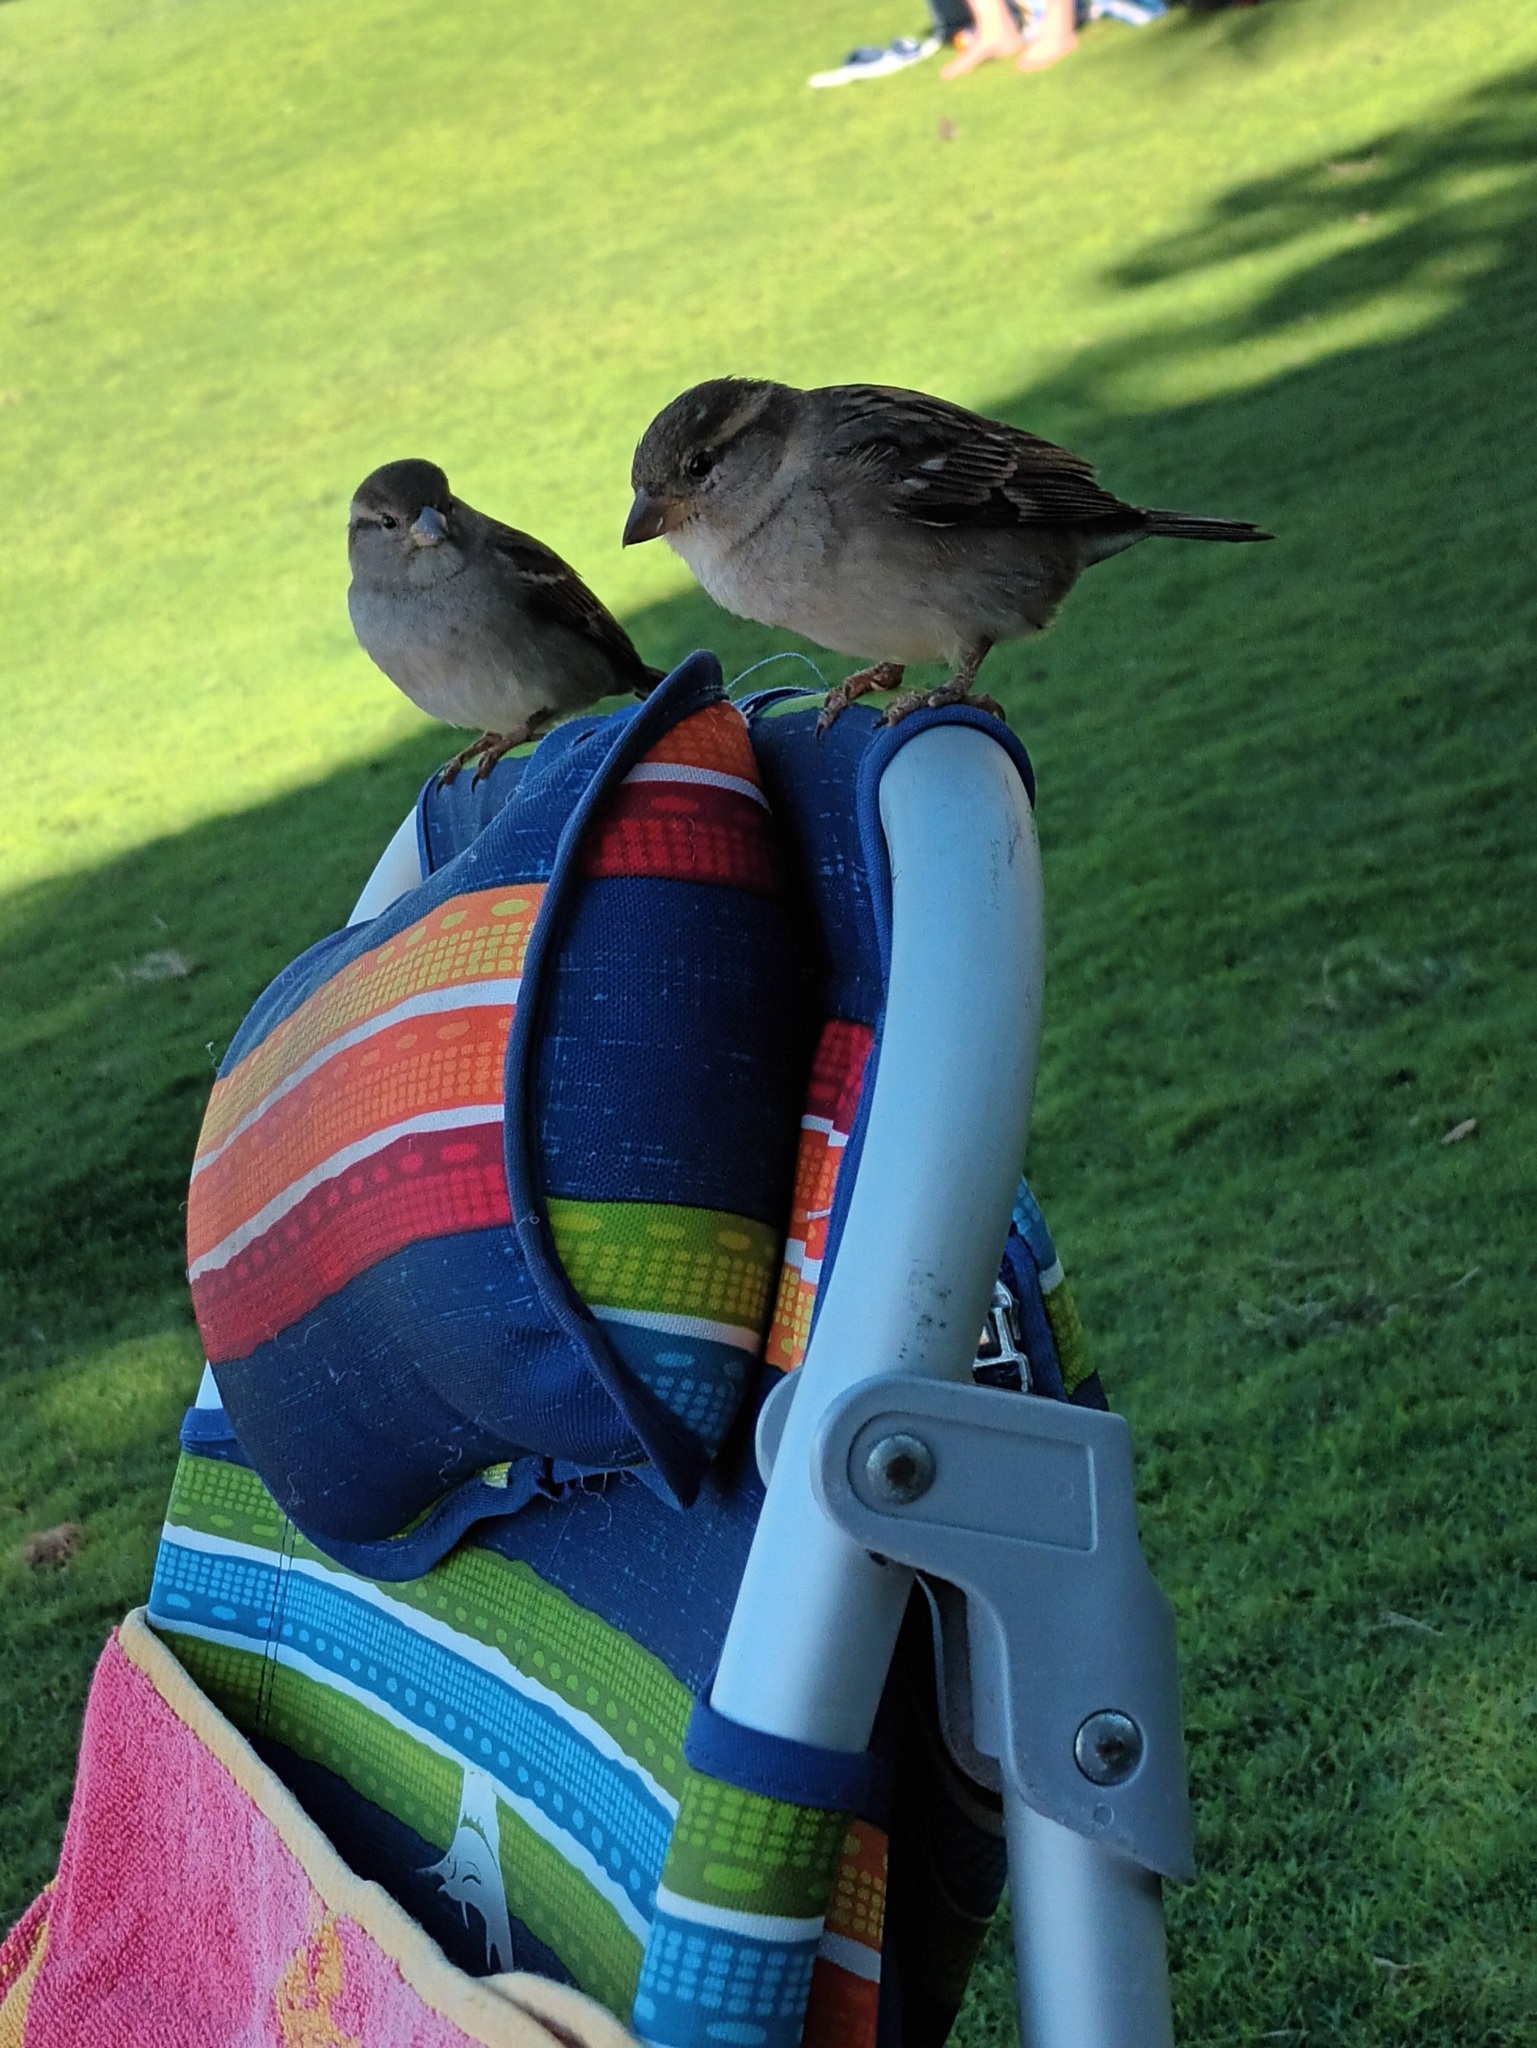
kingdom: Animalia
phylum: Chordata
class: Aves
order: Passeriformes
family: Passeridae
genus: Passer
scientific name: Passer domesticus
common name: House sparrow
